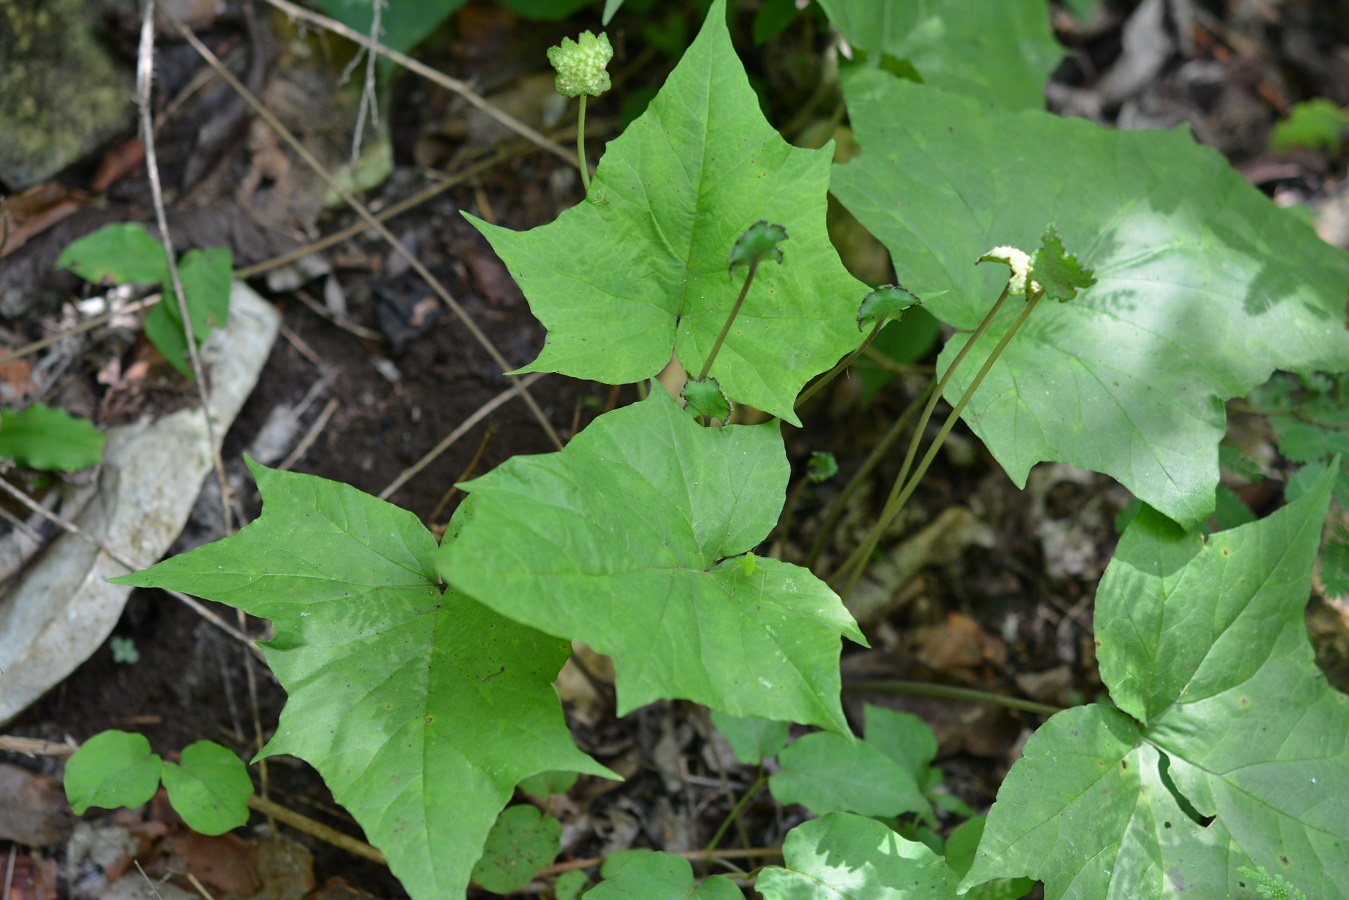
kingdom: Plantae
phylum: Tracheophyta
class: Magnoliopsida
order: Rosales
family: Moraceae
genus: Dorstenia
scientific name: Dorstenia contrajerva
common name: Tusilla
